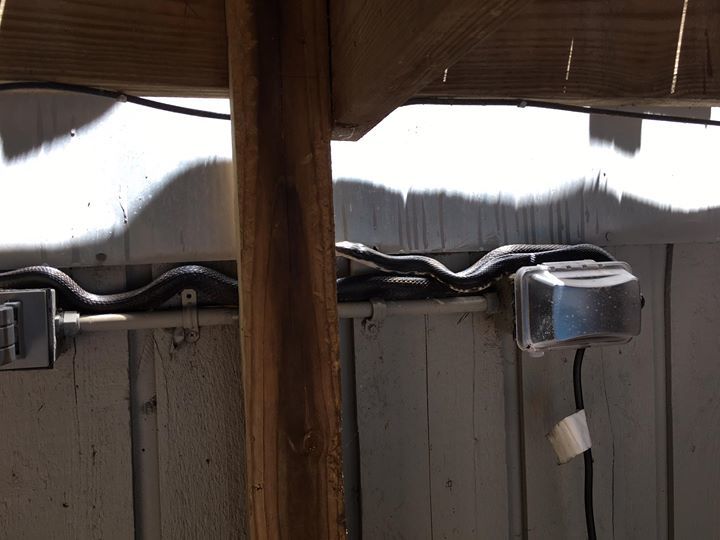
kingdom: Animalia
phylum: Chordata
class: Squamata
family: Colubridae
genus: Pantherophis
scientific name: Pantherophis alleghaniensis
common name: Eastern rat snake
